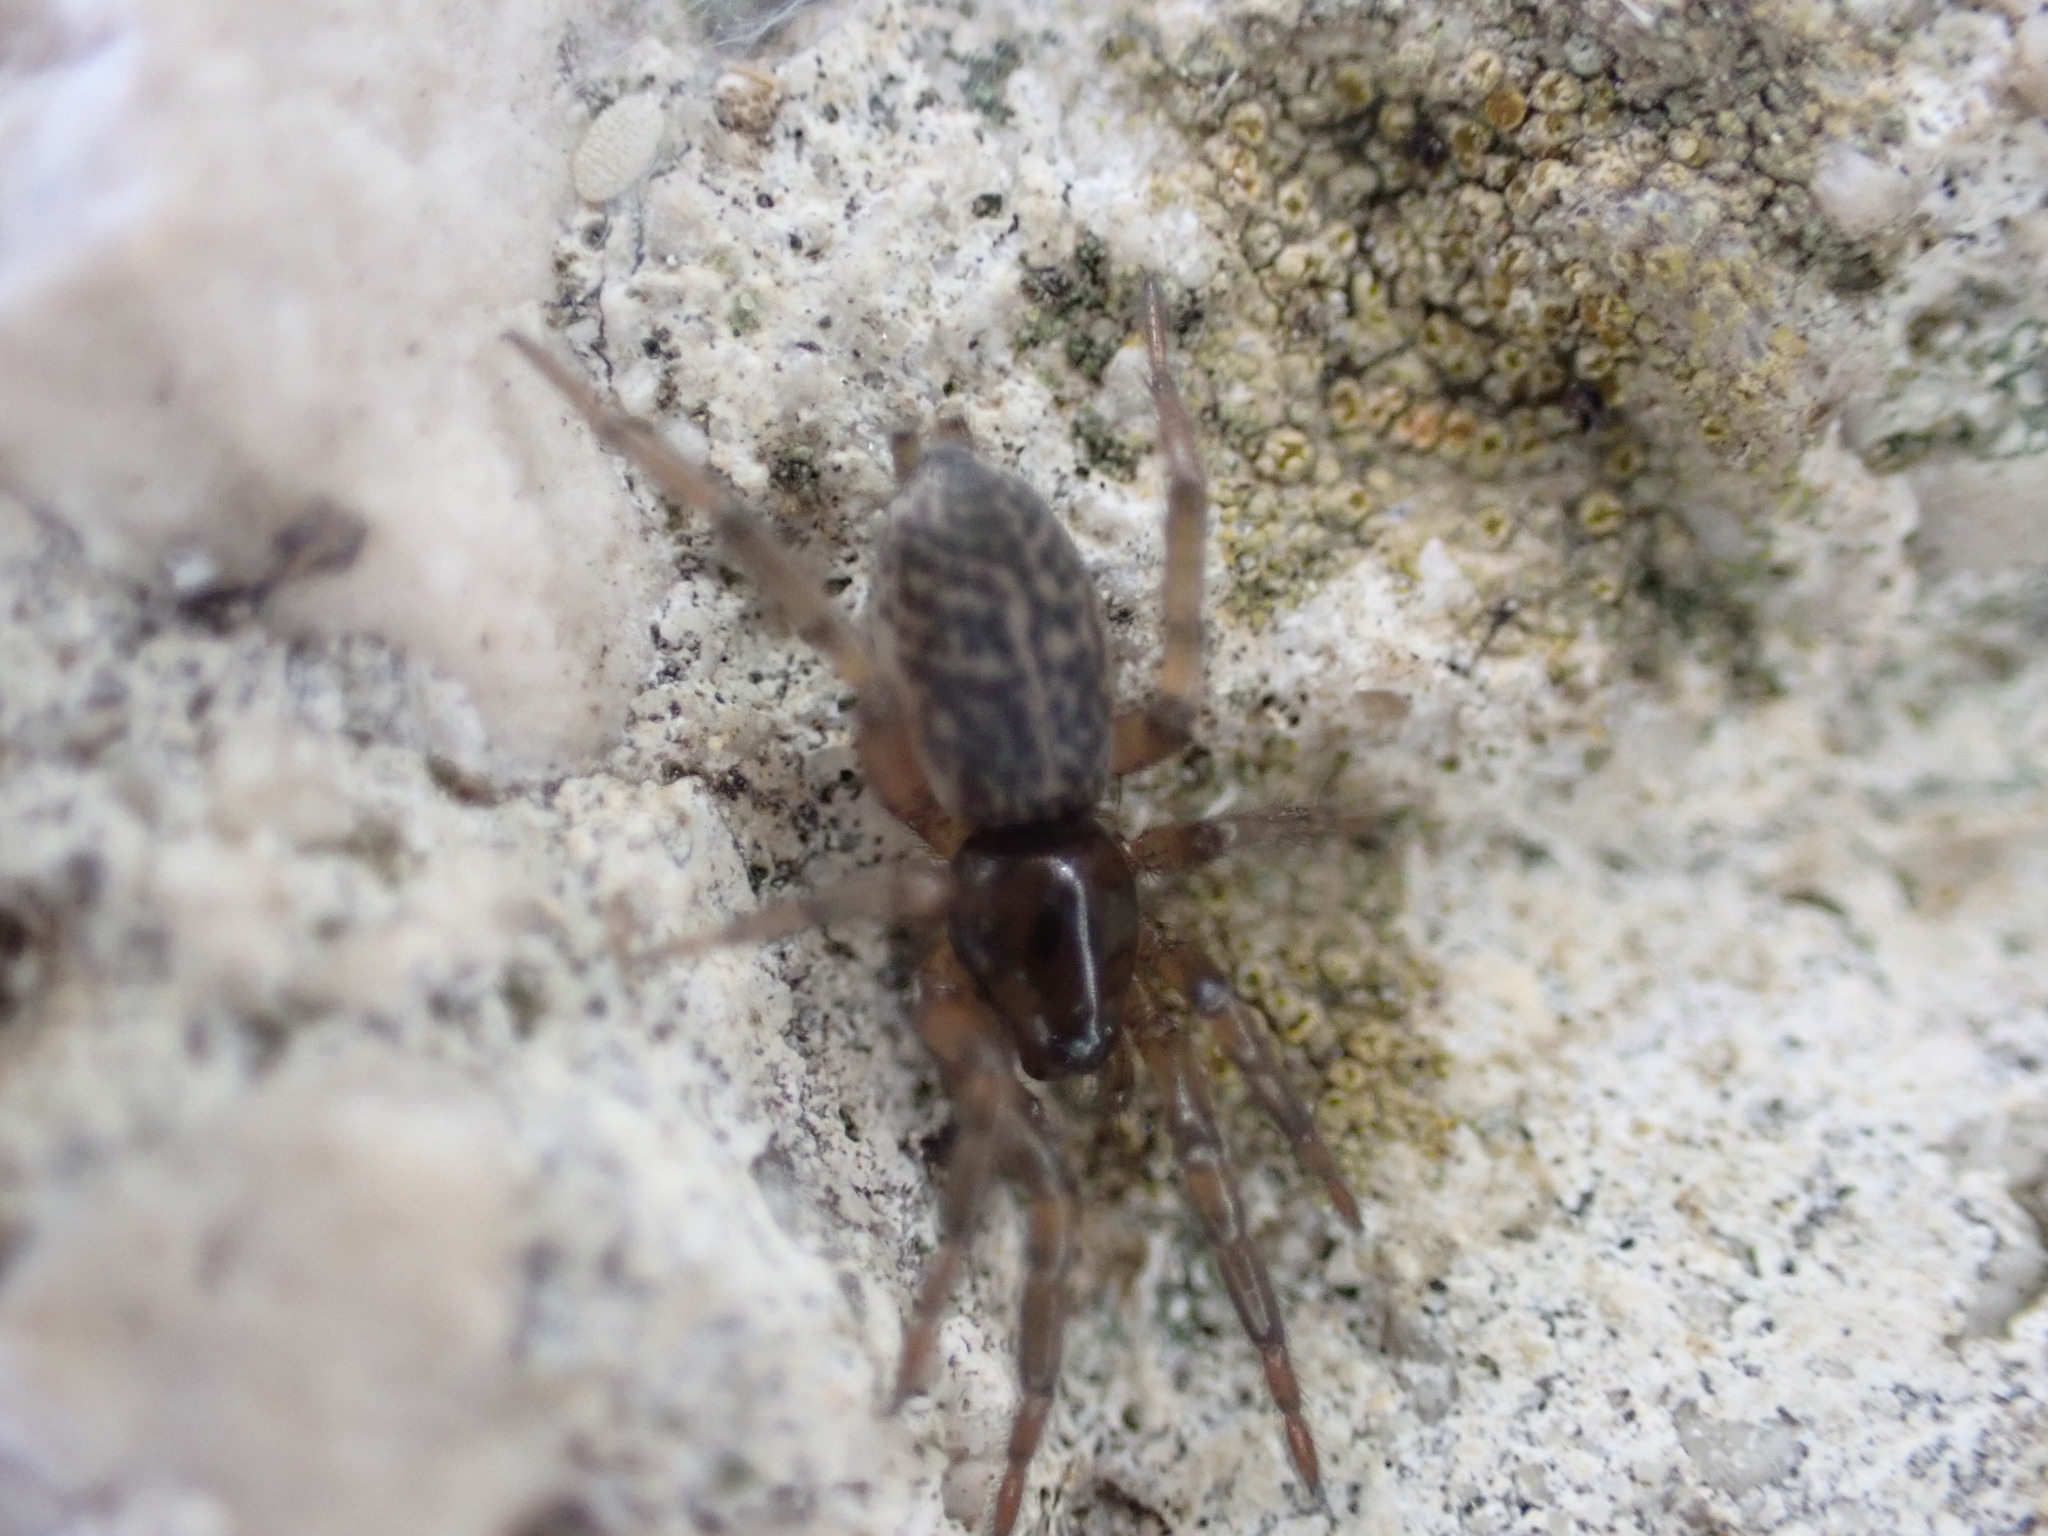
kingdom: Animalia
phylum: Arthropoda
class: Arachnida
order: Araneae
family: Gnaphosidae
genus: Gnaphosa
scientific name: Gnaphosa alacris
